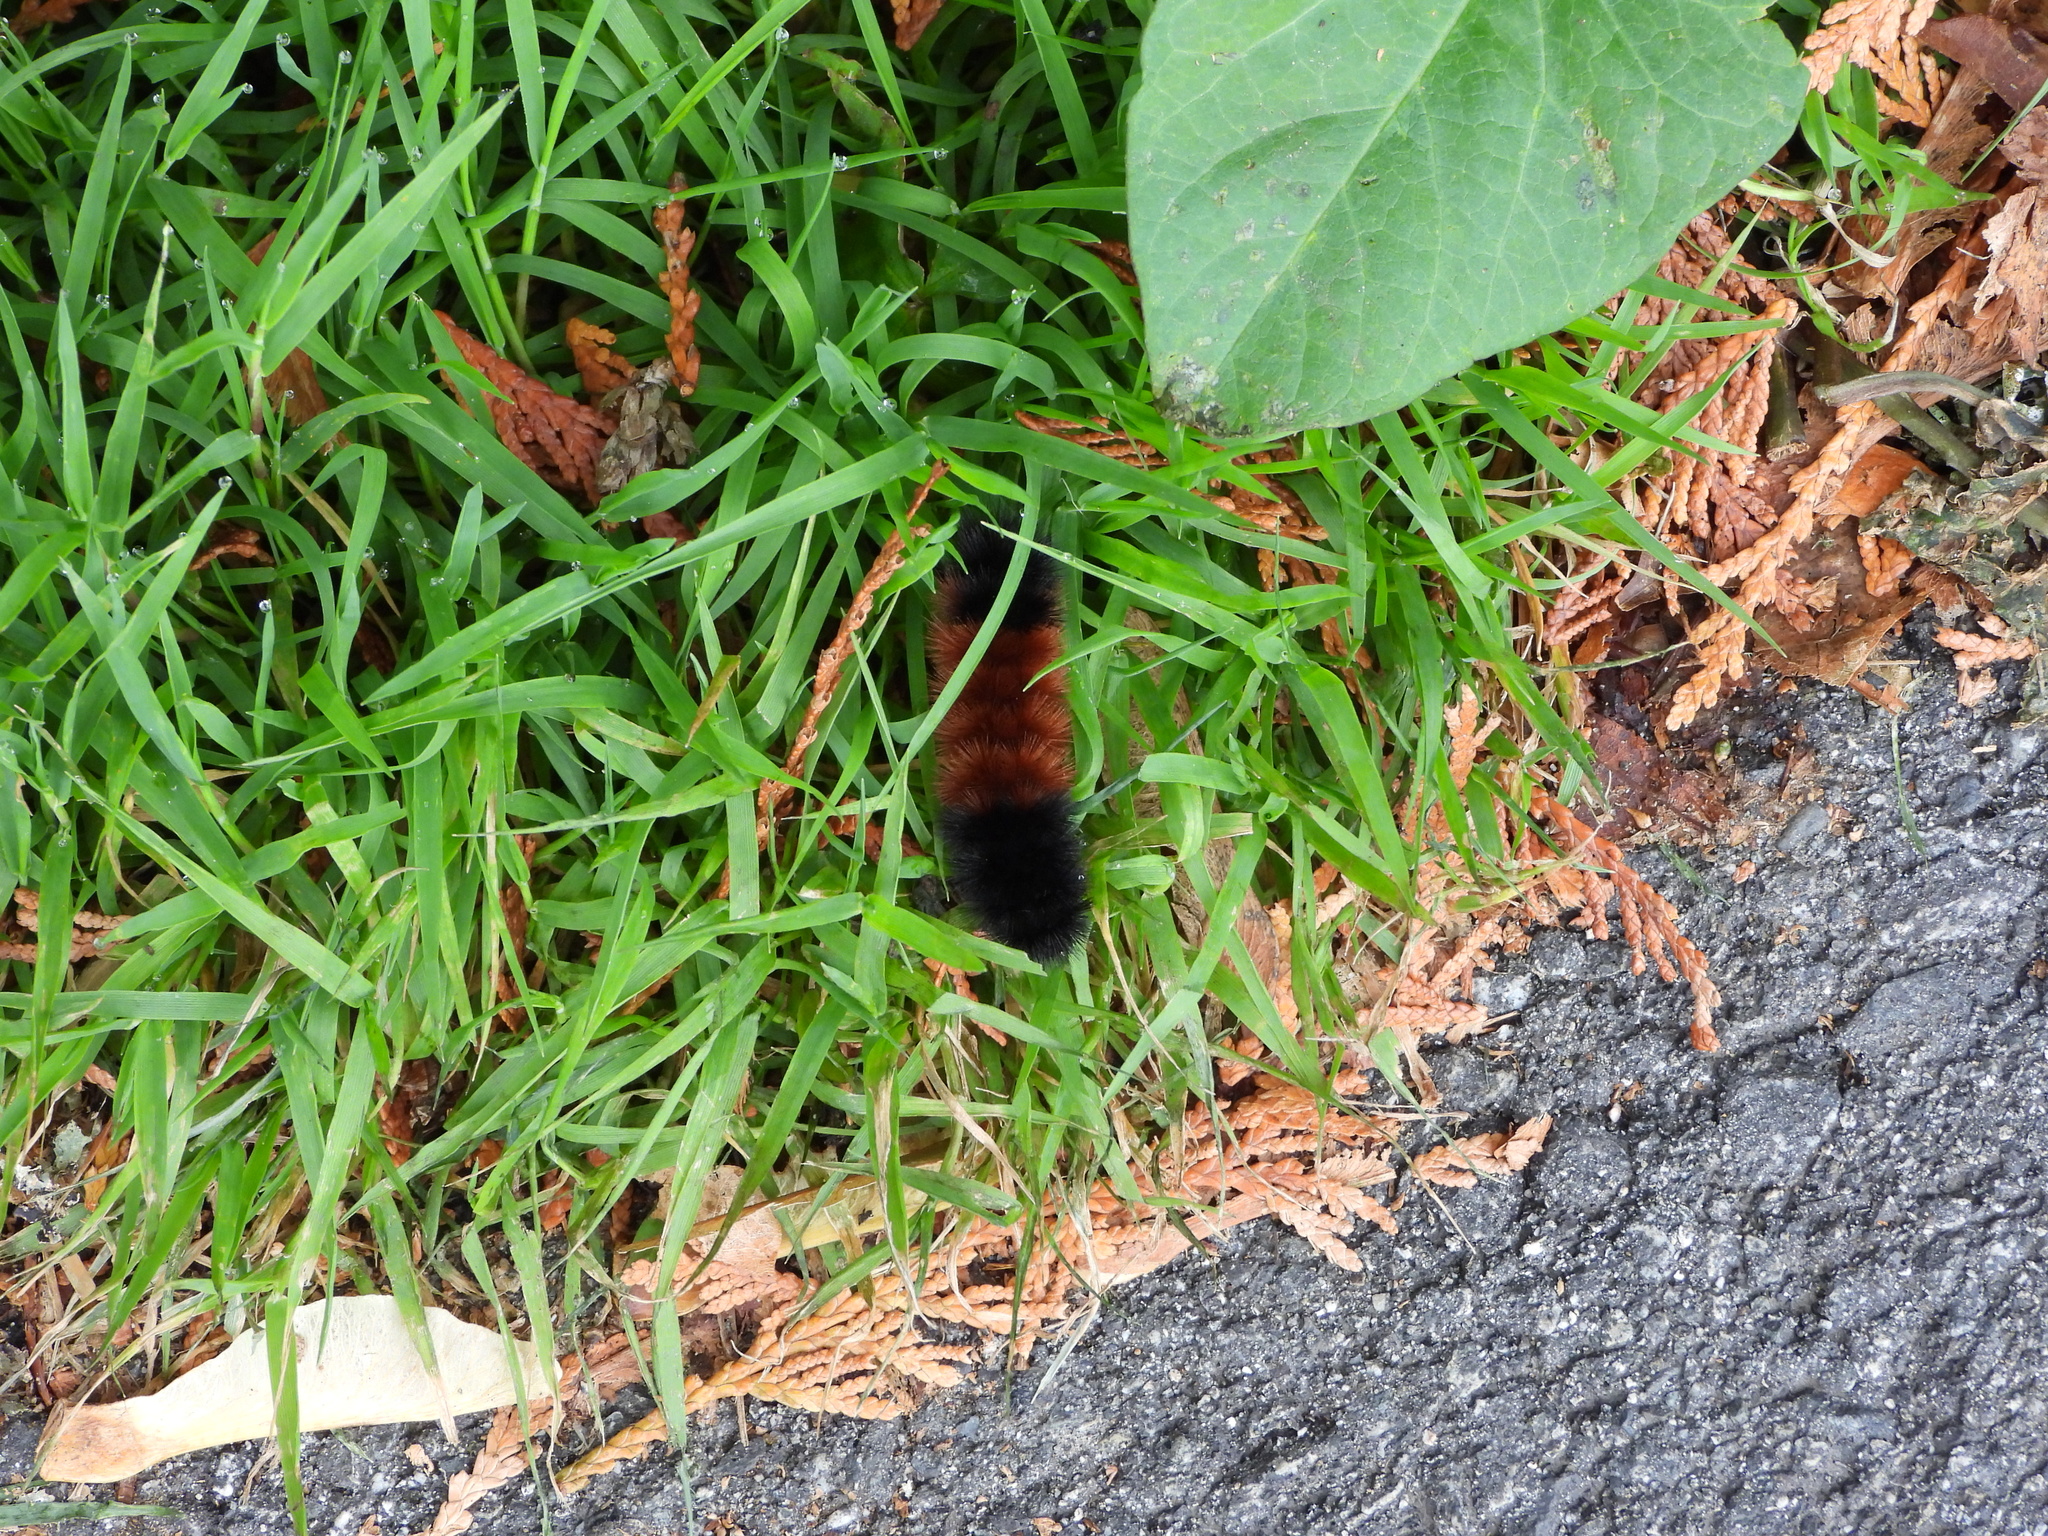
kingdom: Animalia
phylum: Arthropoda
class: Insecta
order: Lepidoptera
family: Erebidae
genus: Pyrrharctia
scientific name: Pyrrharctia isabella
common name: Isabella tiger moth
